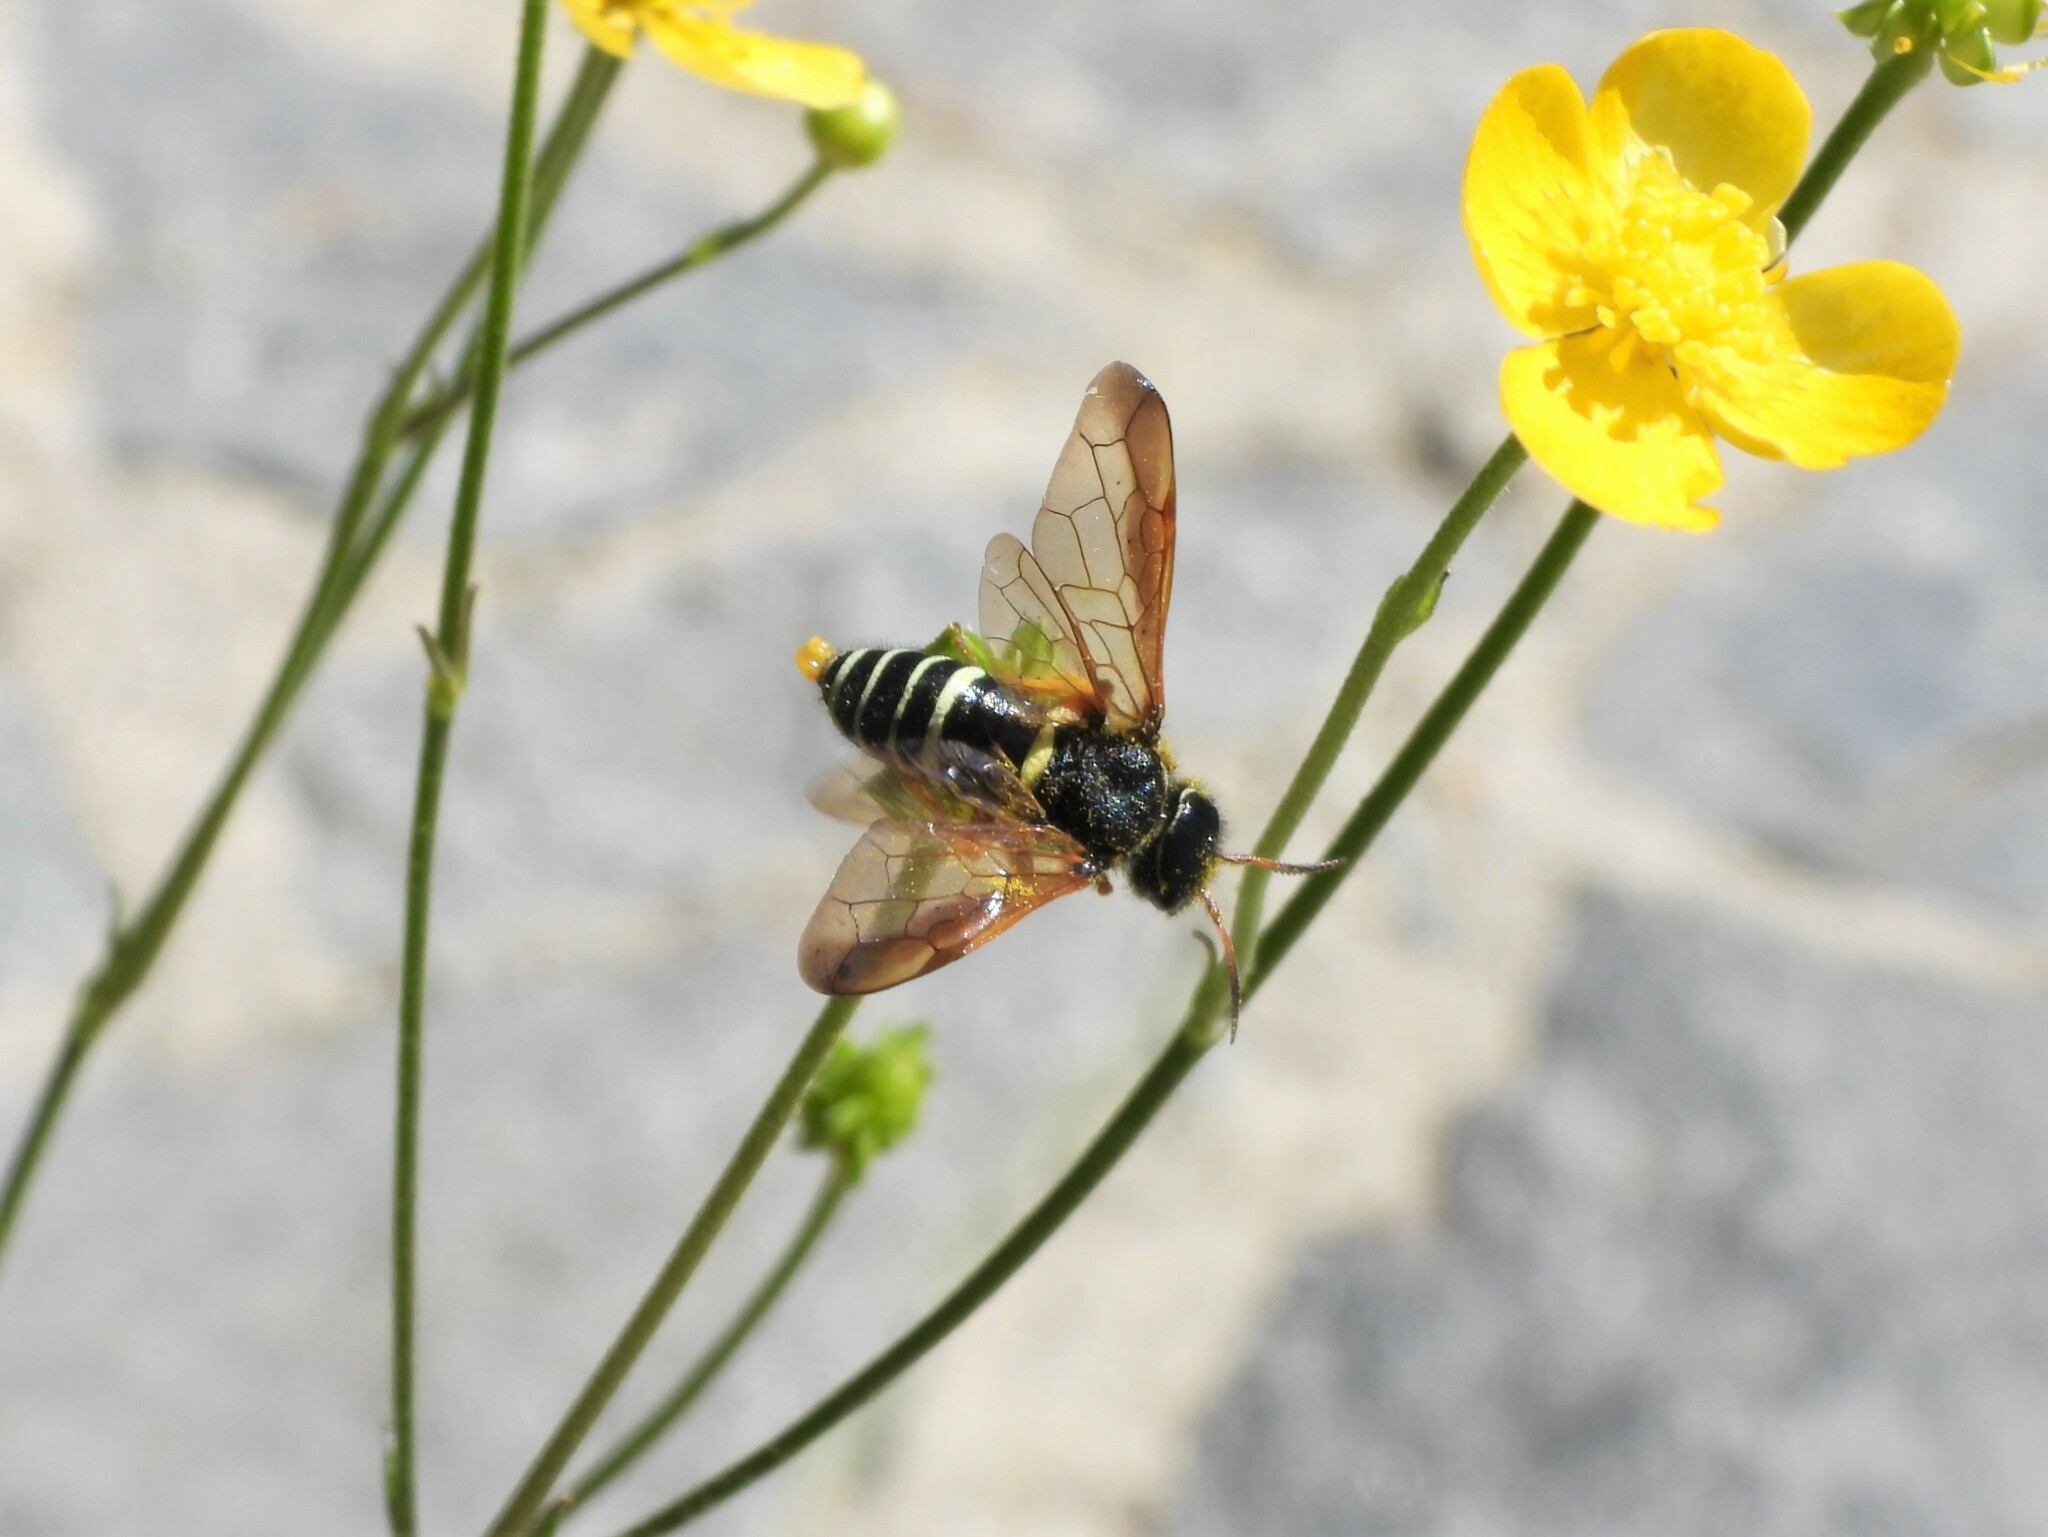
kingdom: Animalia
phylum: Arthropoda
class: Insecta
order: Hymenoptera
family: Megalodontesidae
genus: Megalodontes
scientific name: Megalodontes cephalotes
